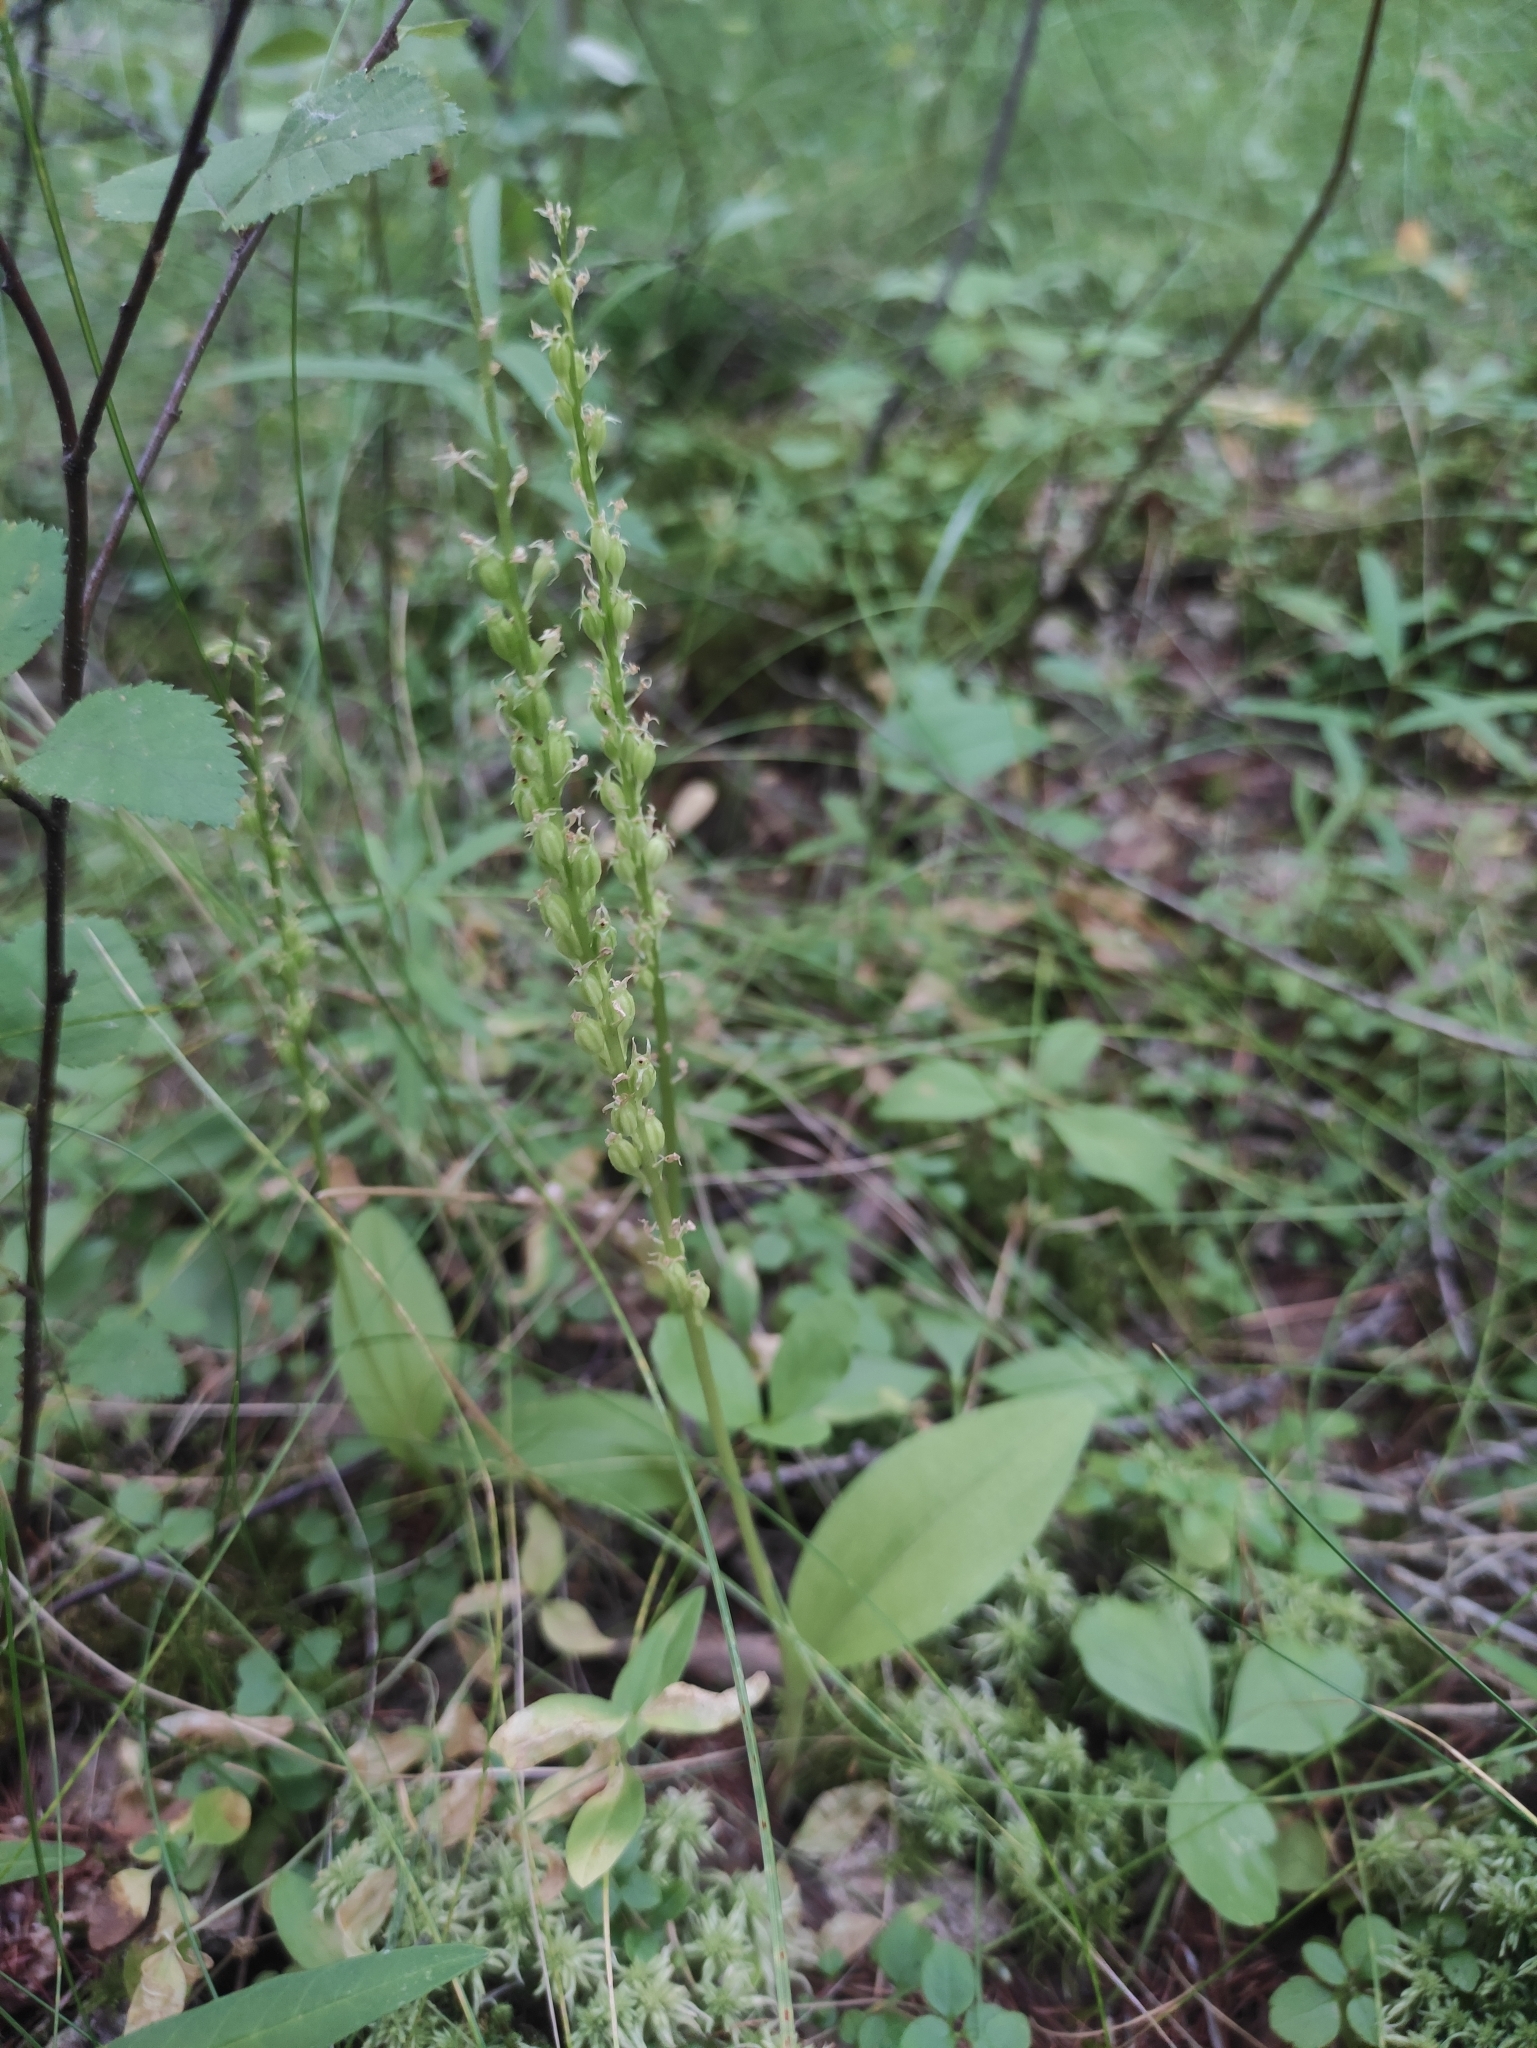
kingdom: Plantae
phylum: Tracheophyta
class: Liliopsida
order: Asparagales
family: Orchidaceae
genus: Malaxis
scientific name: Malaxis monophyllos
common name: White adder's-mouth
